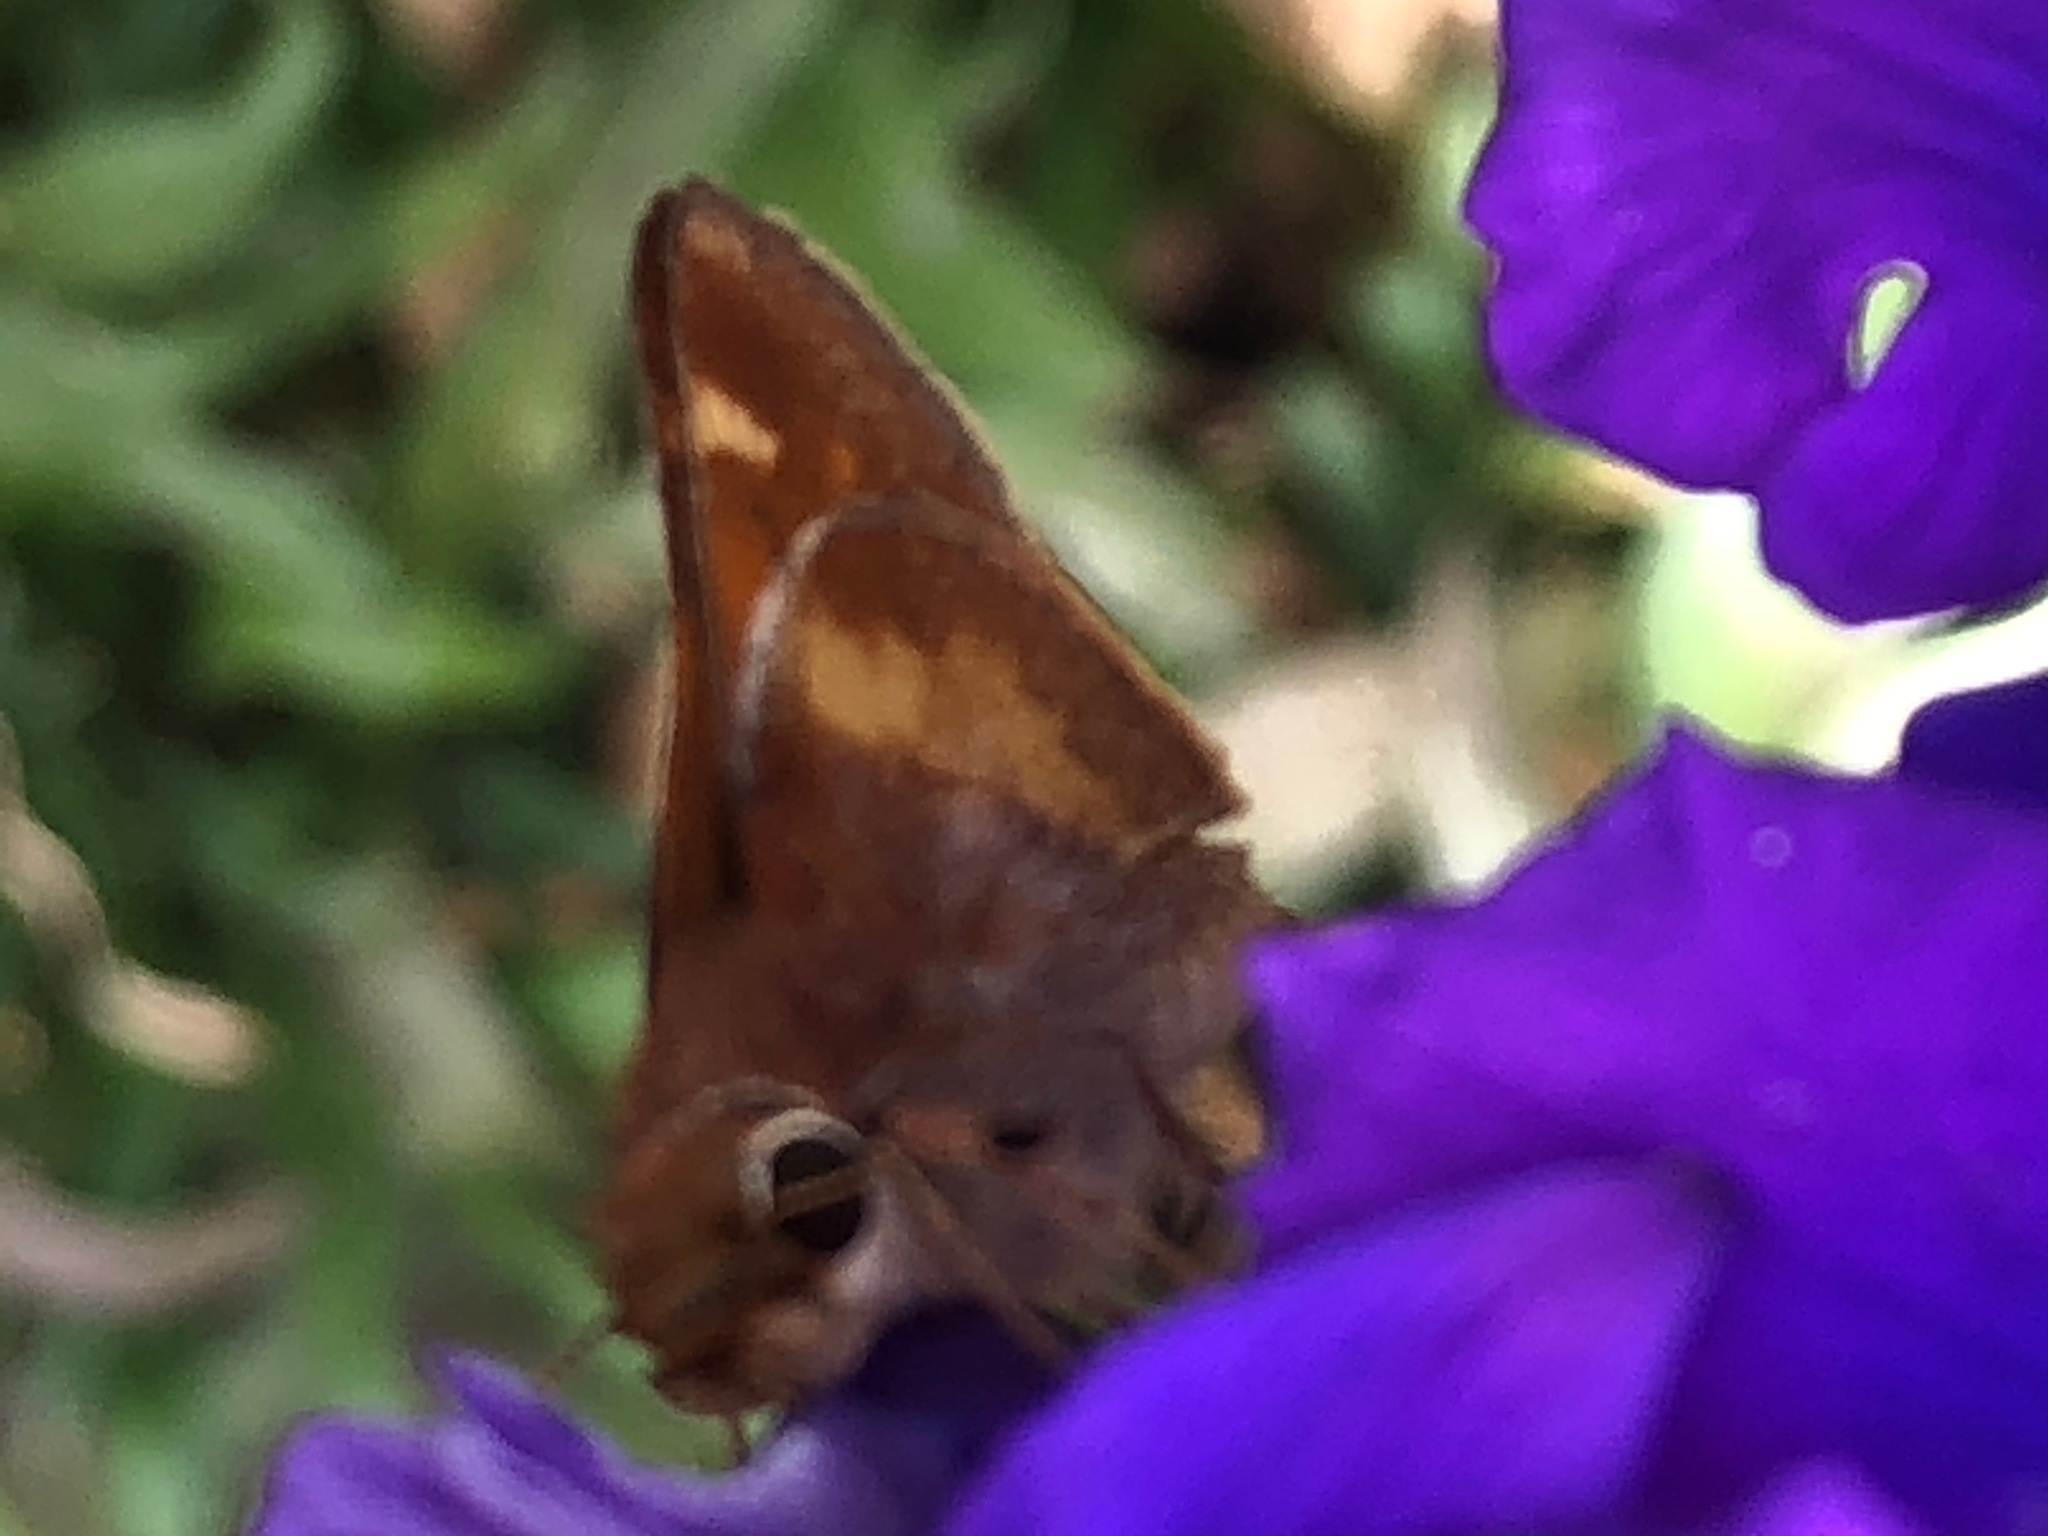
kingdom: Animalia
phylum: Arthropoda
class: Insecta
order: Lepidoptera
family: Hesperiidae
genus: Lon
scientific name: Lon melane
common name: Umber skipper
